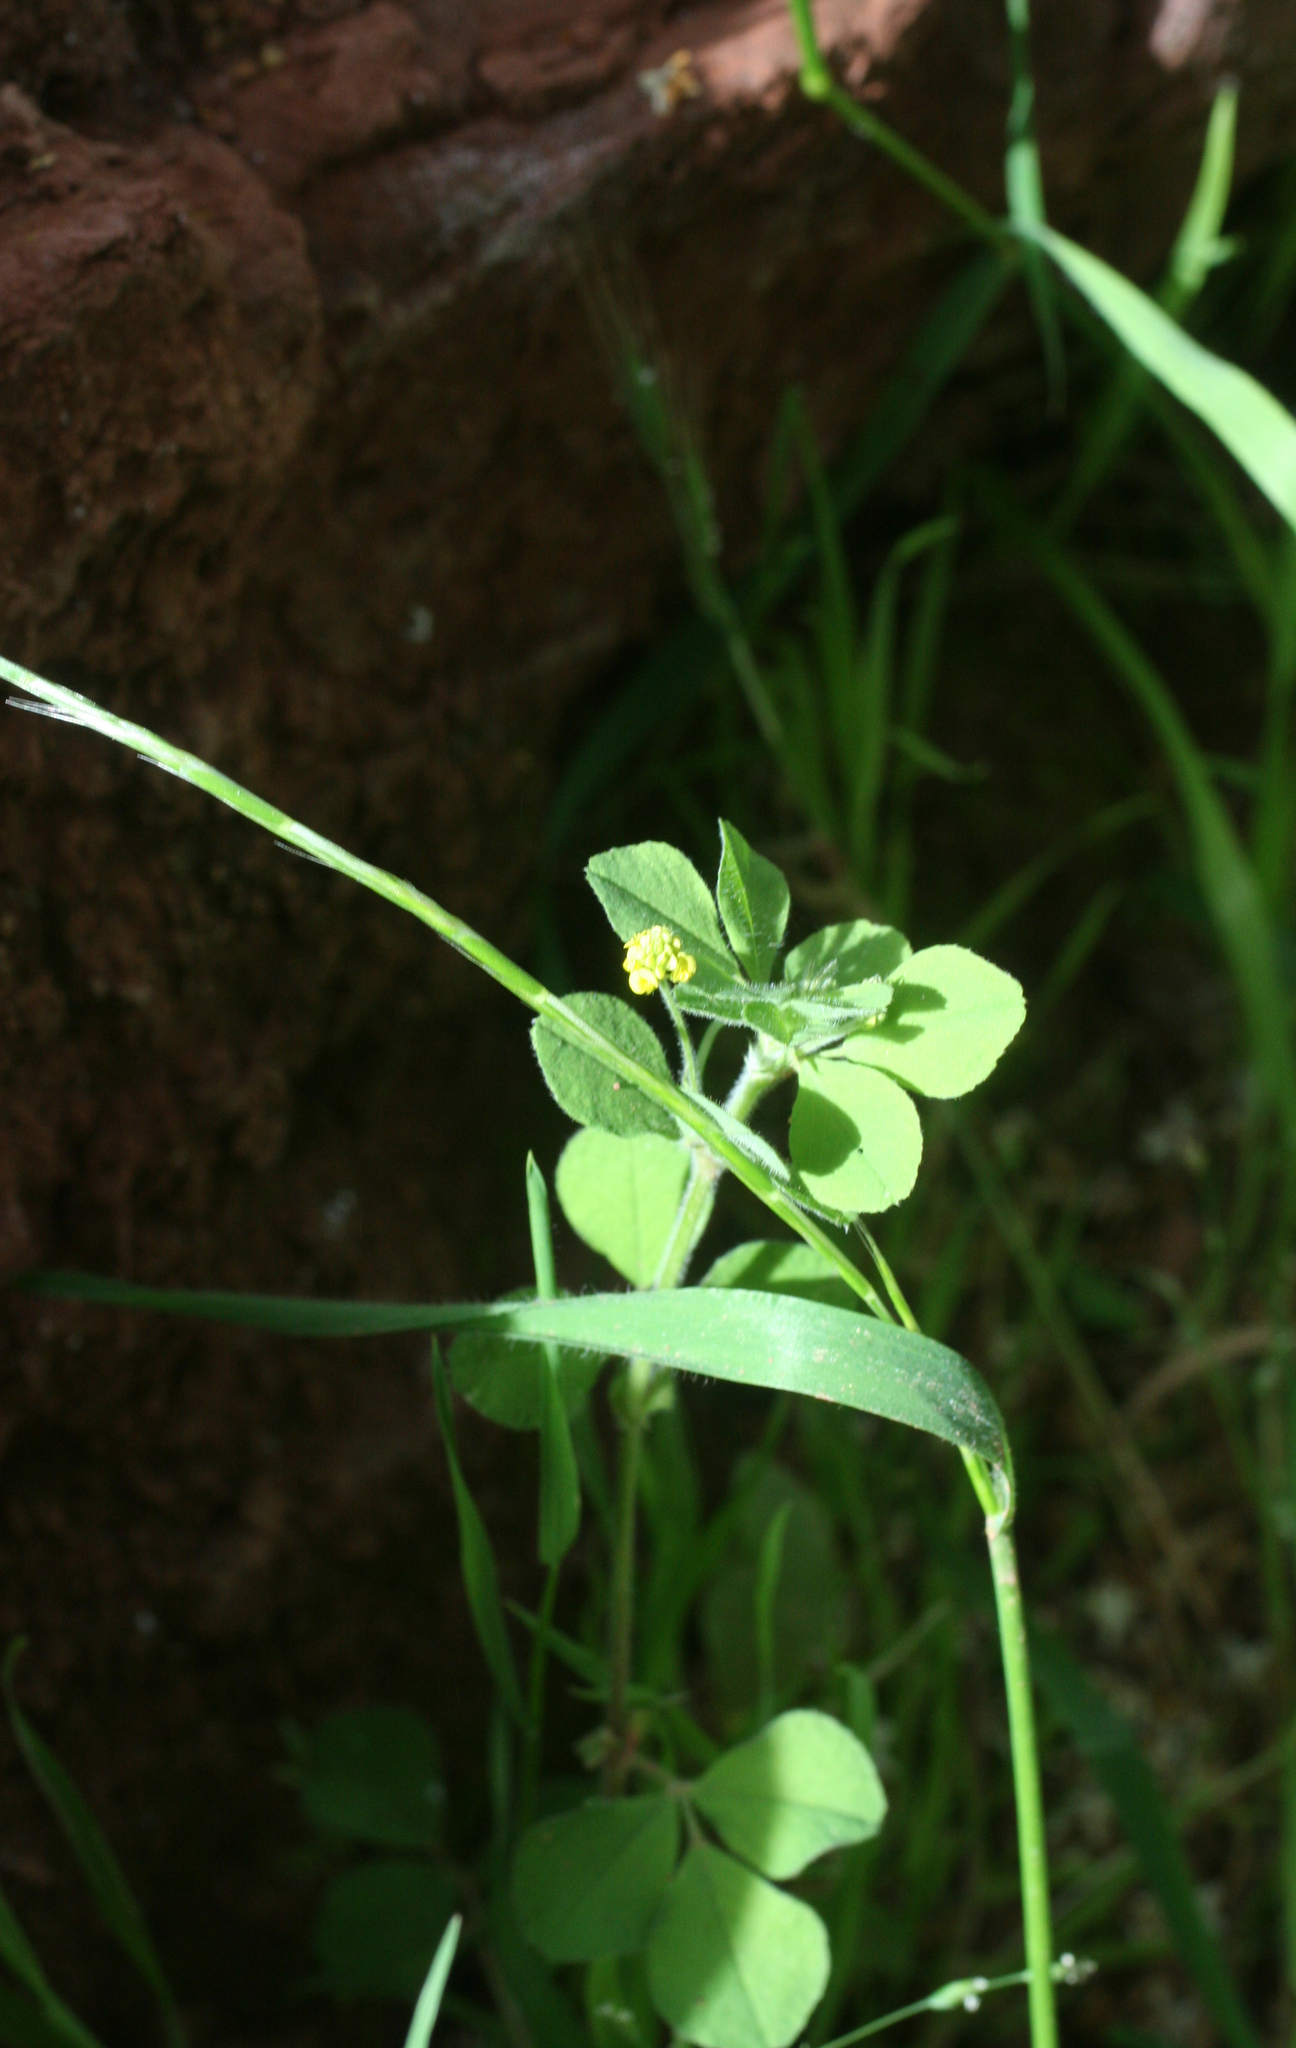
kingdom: Plantae
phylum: Tracheophyta
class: Magnoliopsida
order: Fabales
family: Fabaceae
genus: Medicago
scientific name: Medicago lupulina
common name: Black medick
